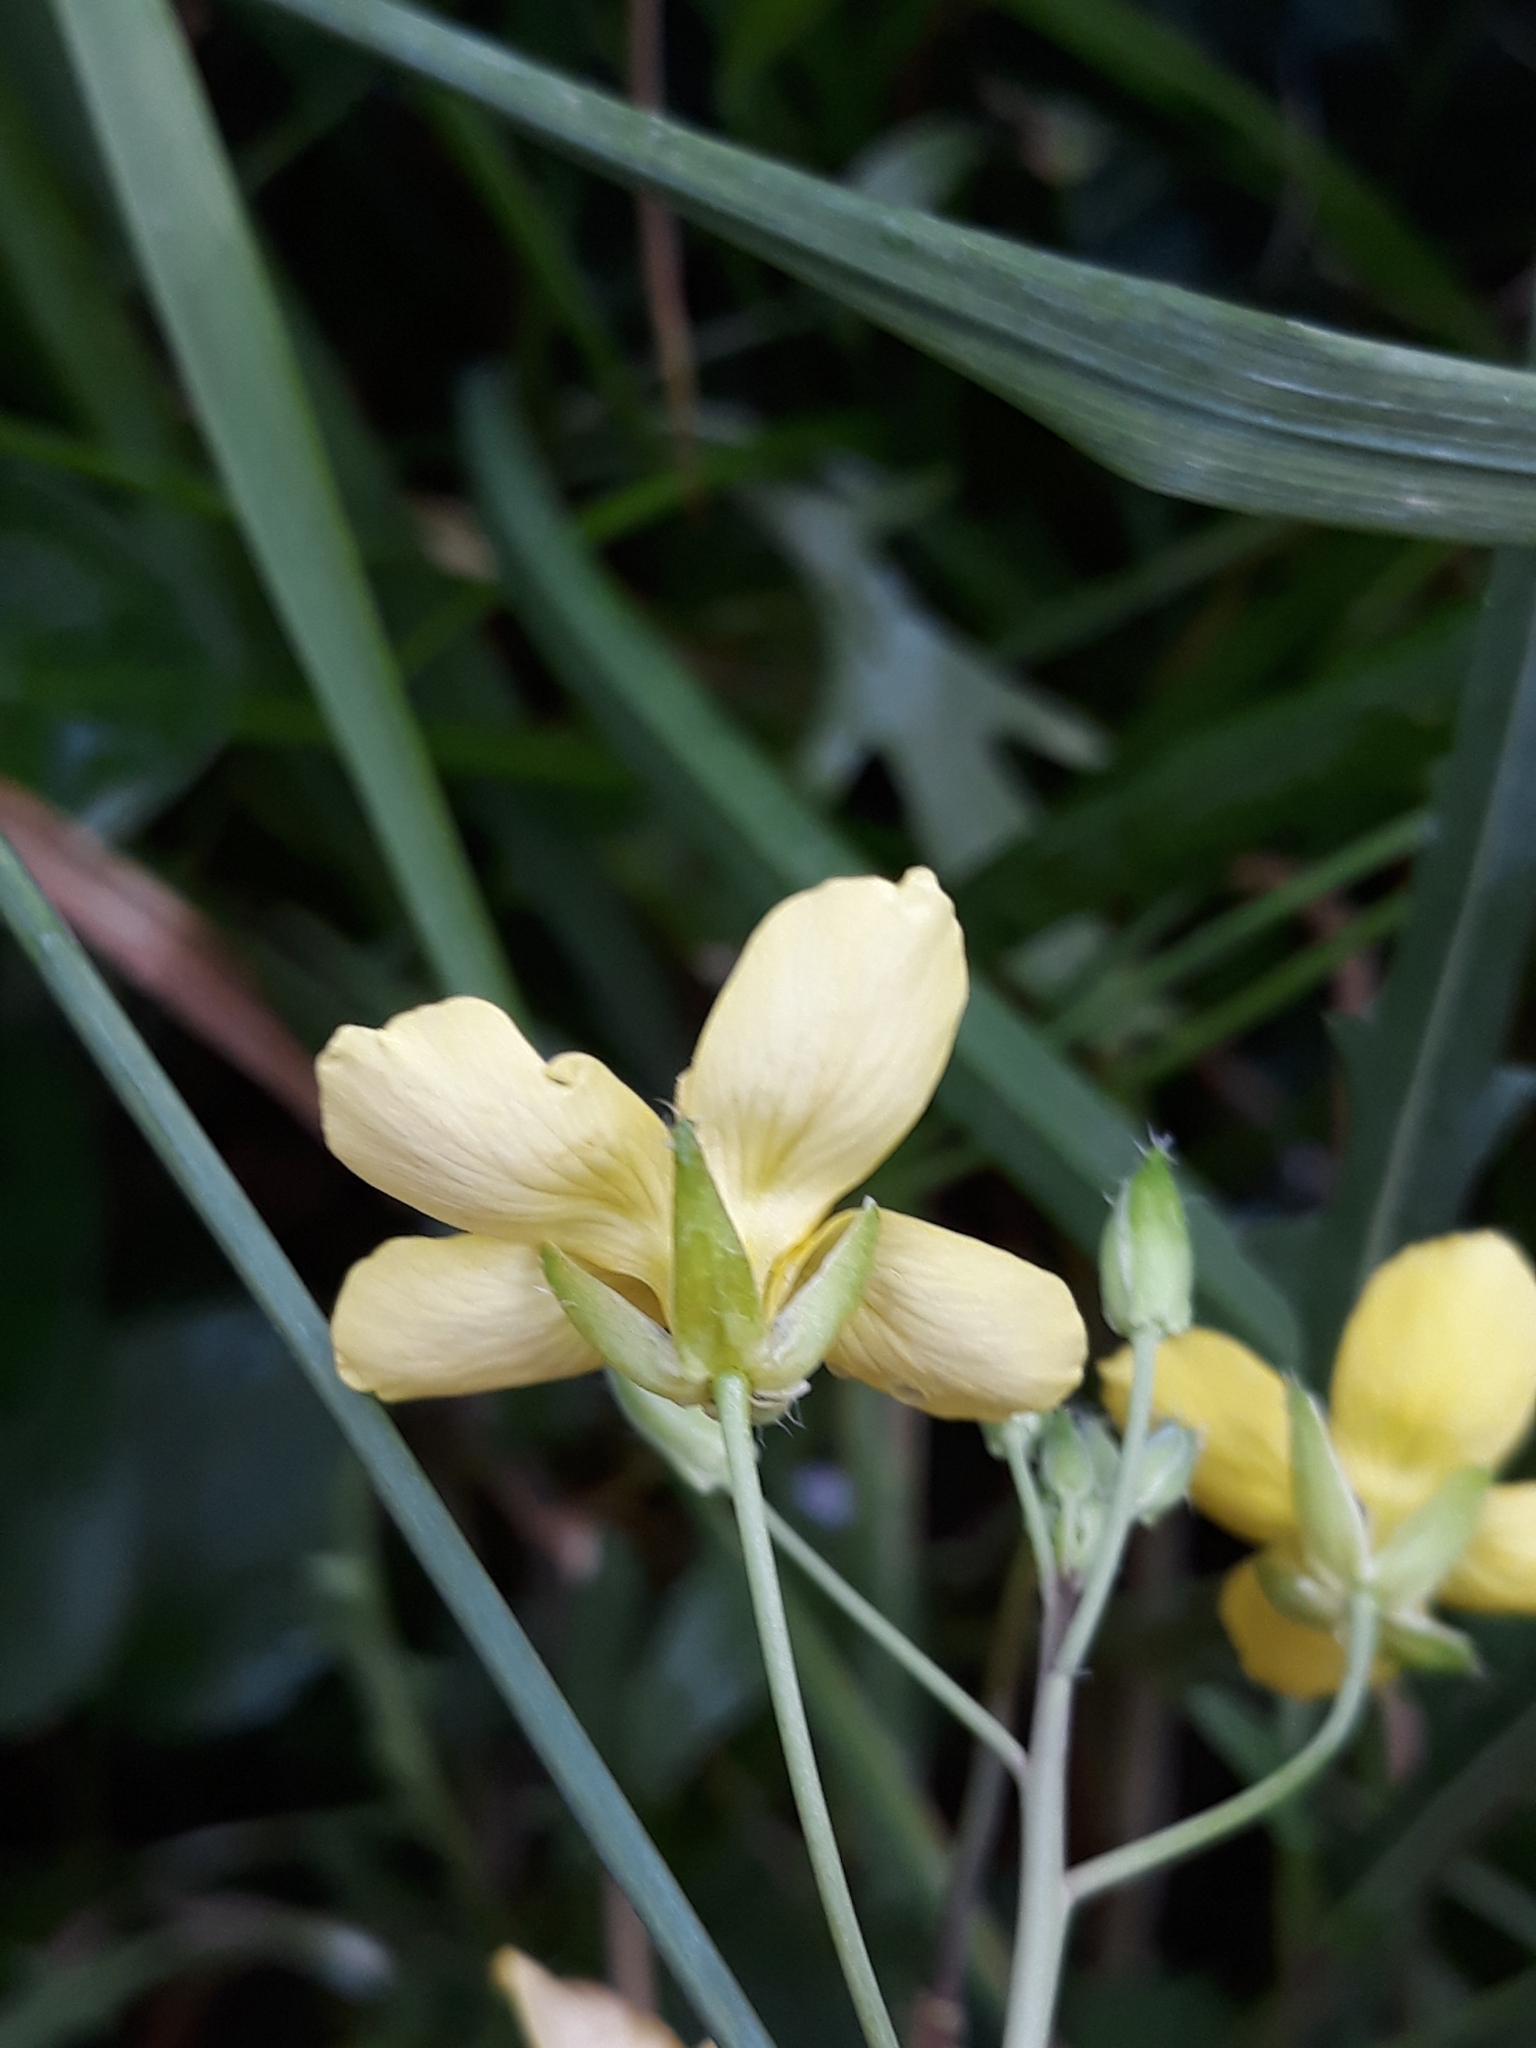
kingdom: Plantae
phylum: Tracheophyta
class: Magnoliopsida
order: Brassicales
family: Brassicaceae
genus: Diplotaxis
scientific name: Diplotaxis tenuifolia
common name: Perennial wall-rocket
